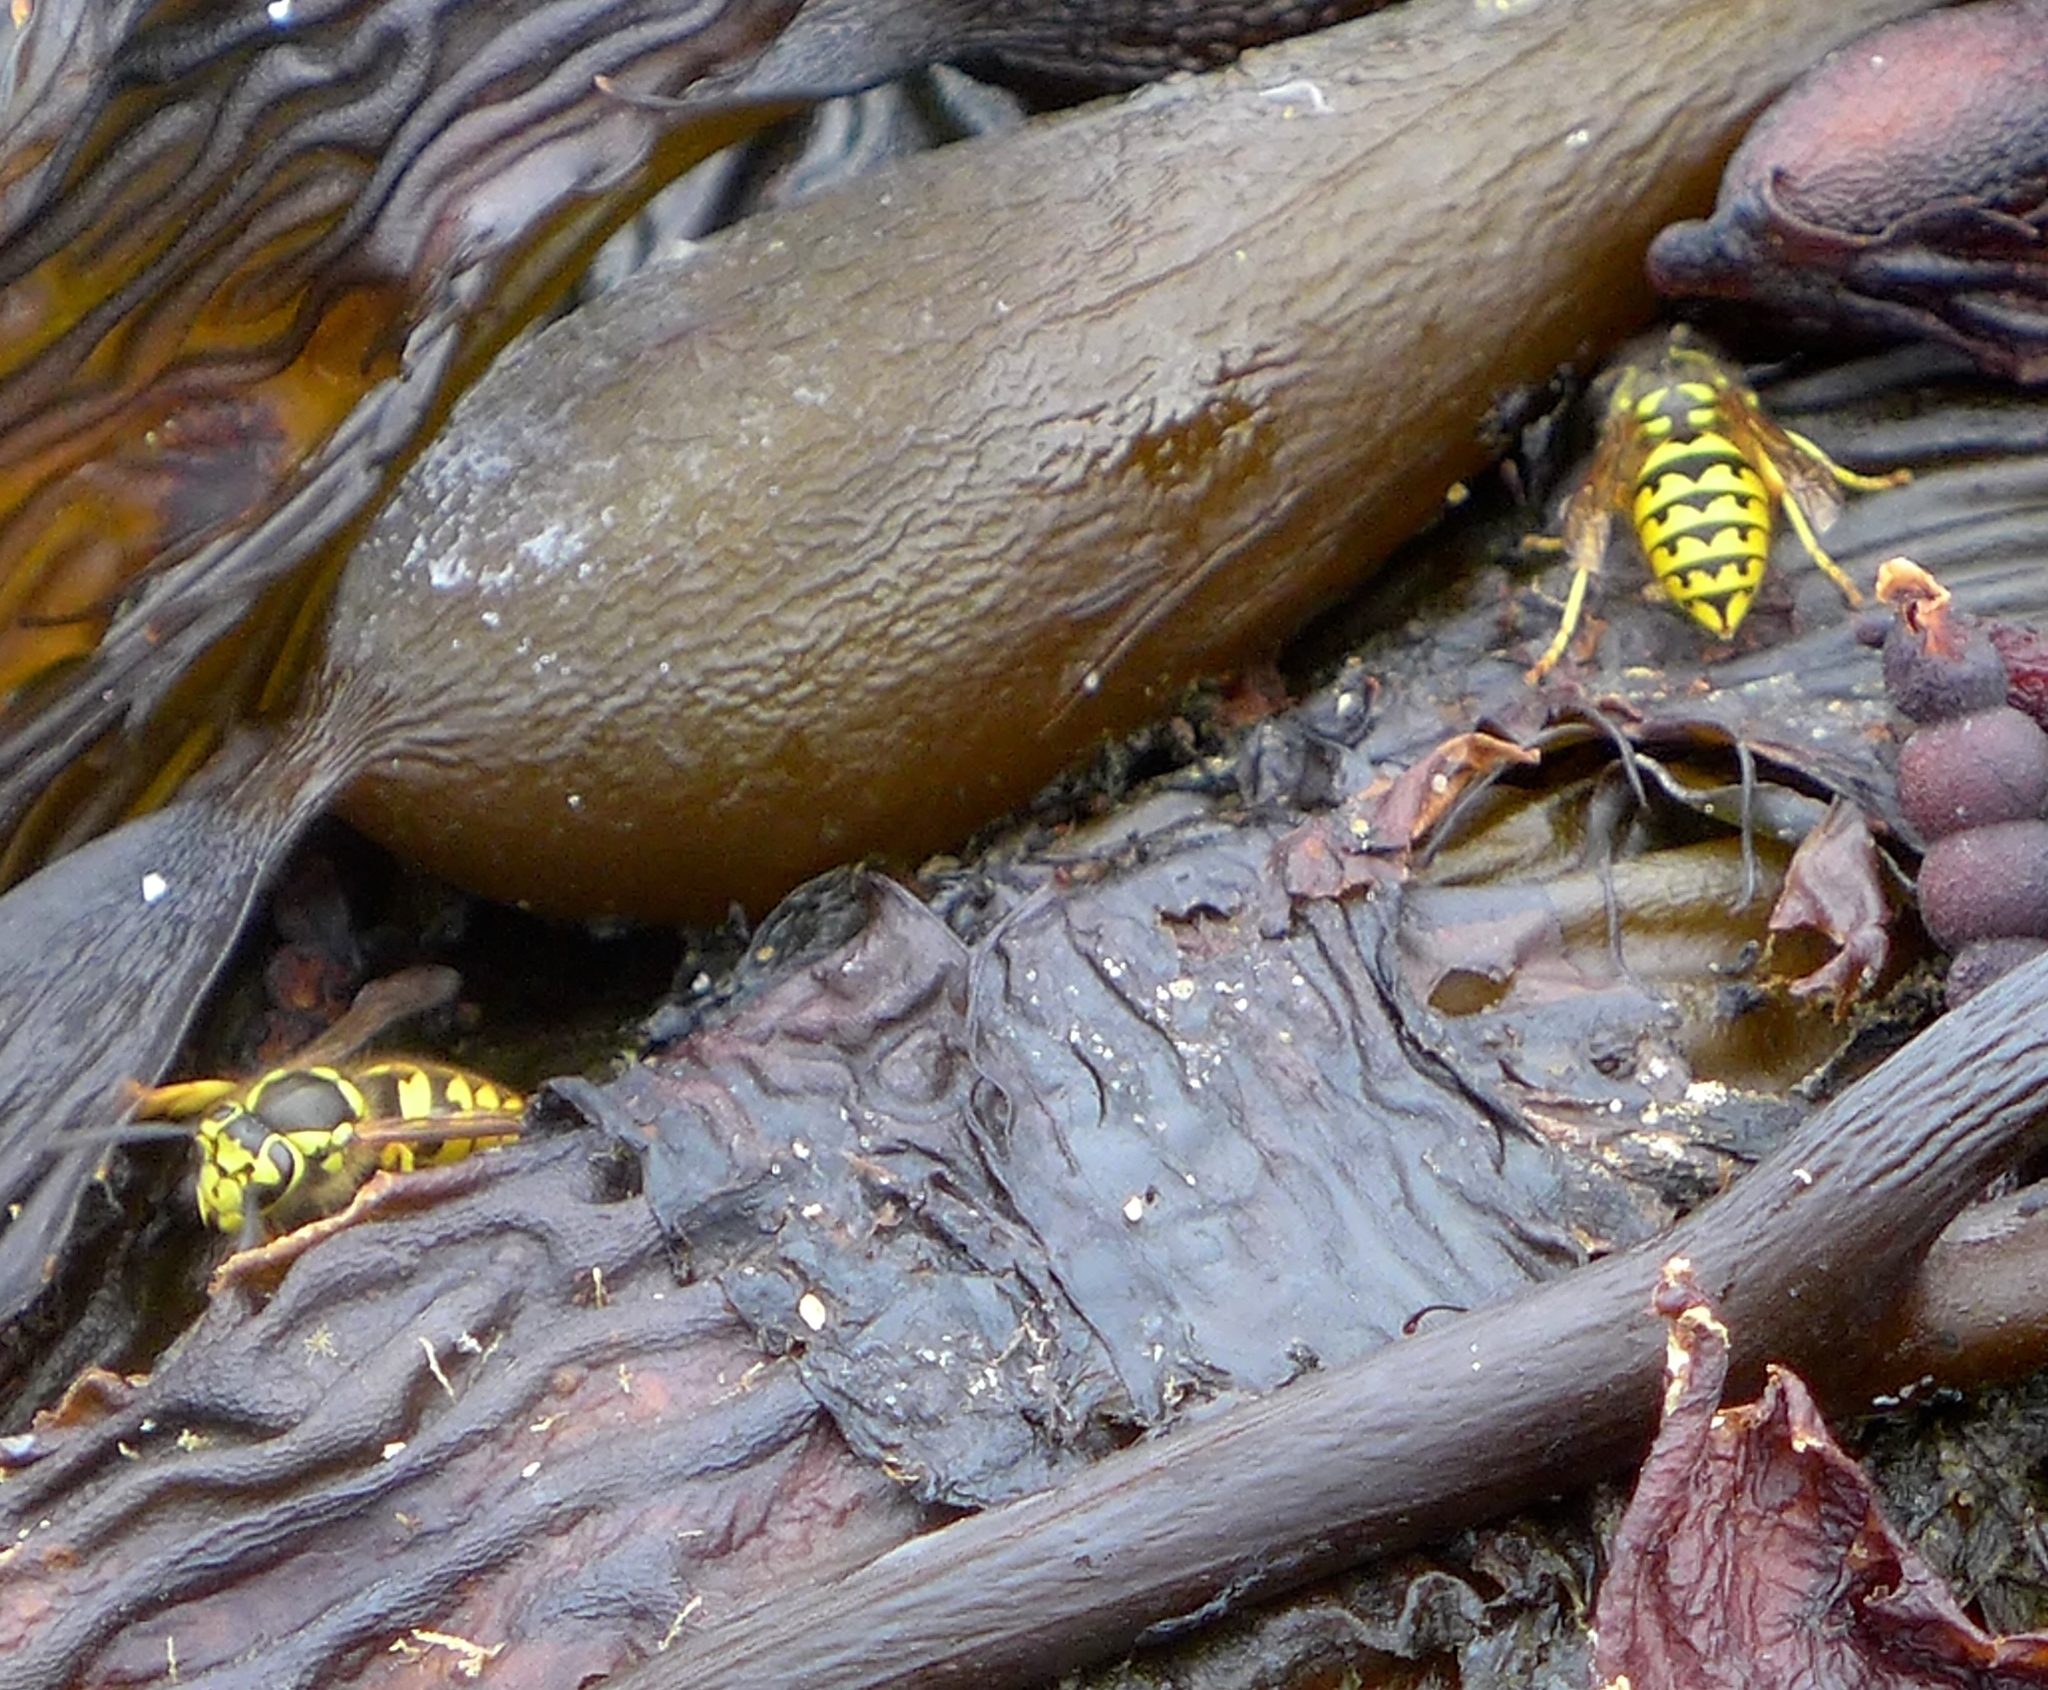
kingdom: Animalia
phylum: Arthropoda
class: Insecta
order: Hymenoptera
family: Vespidae
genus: Vespula
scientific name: Vespula pensylvanica
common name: Western yellowjacket
